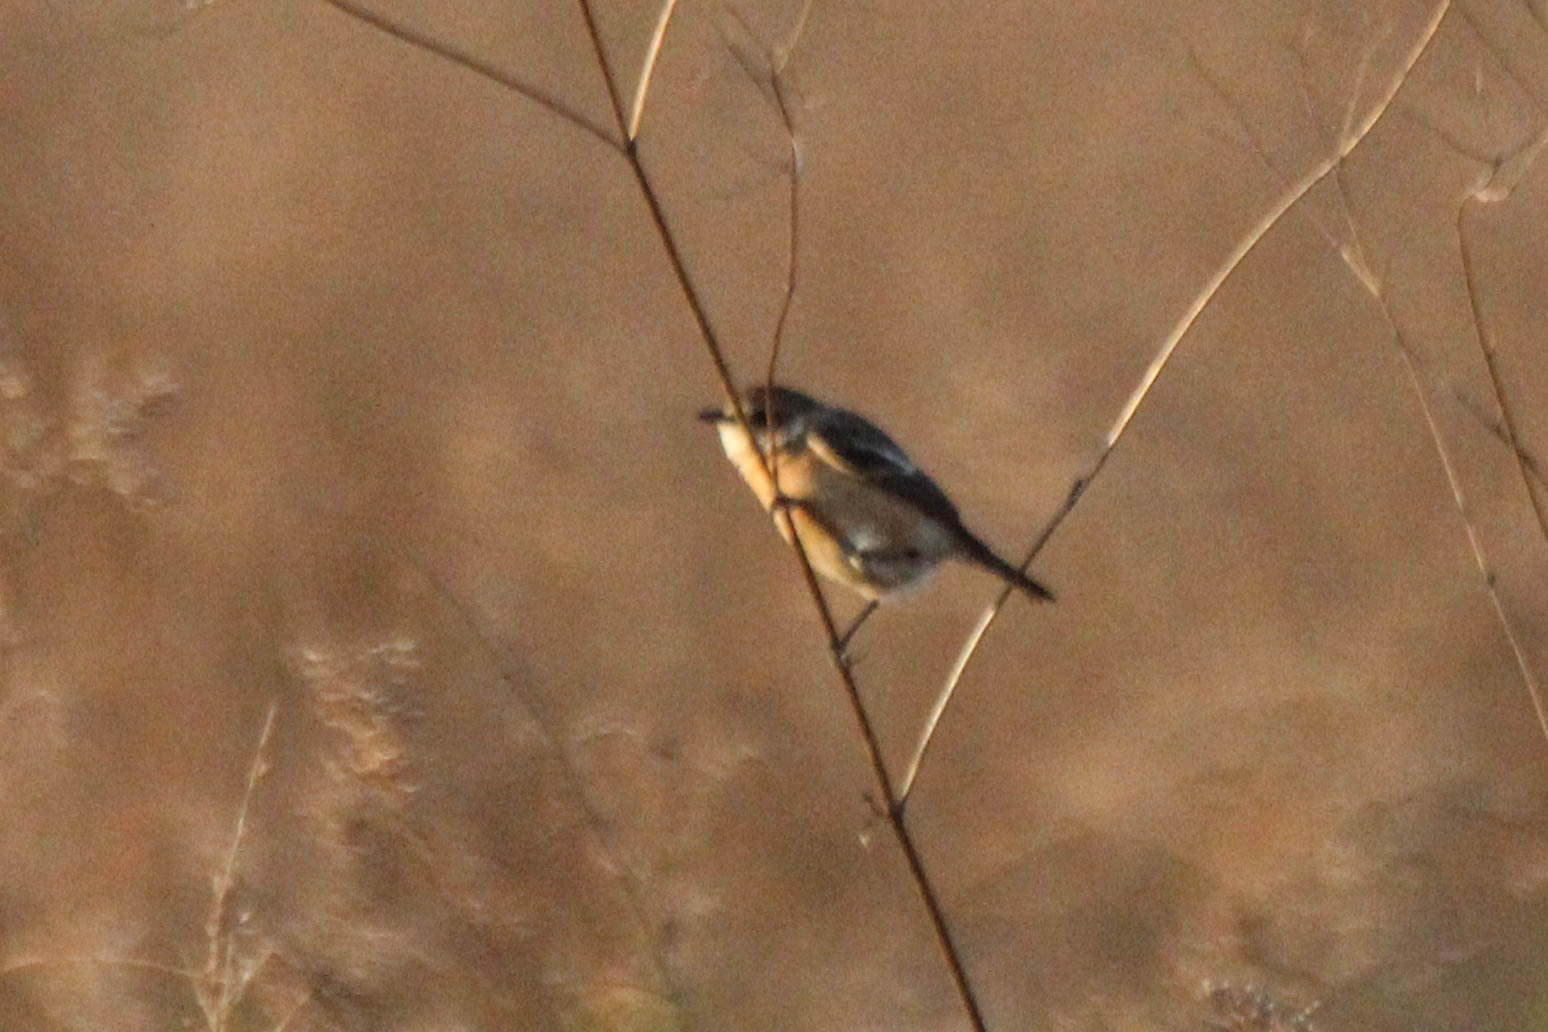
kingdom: Animalia
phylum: Chordata
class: Aves
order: Passeriformes
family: Muscicapidae
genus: Saxicola
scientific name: Saxicola stejnegeri
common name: Stejneger's stonechat
